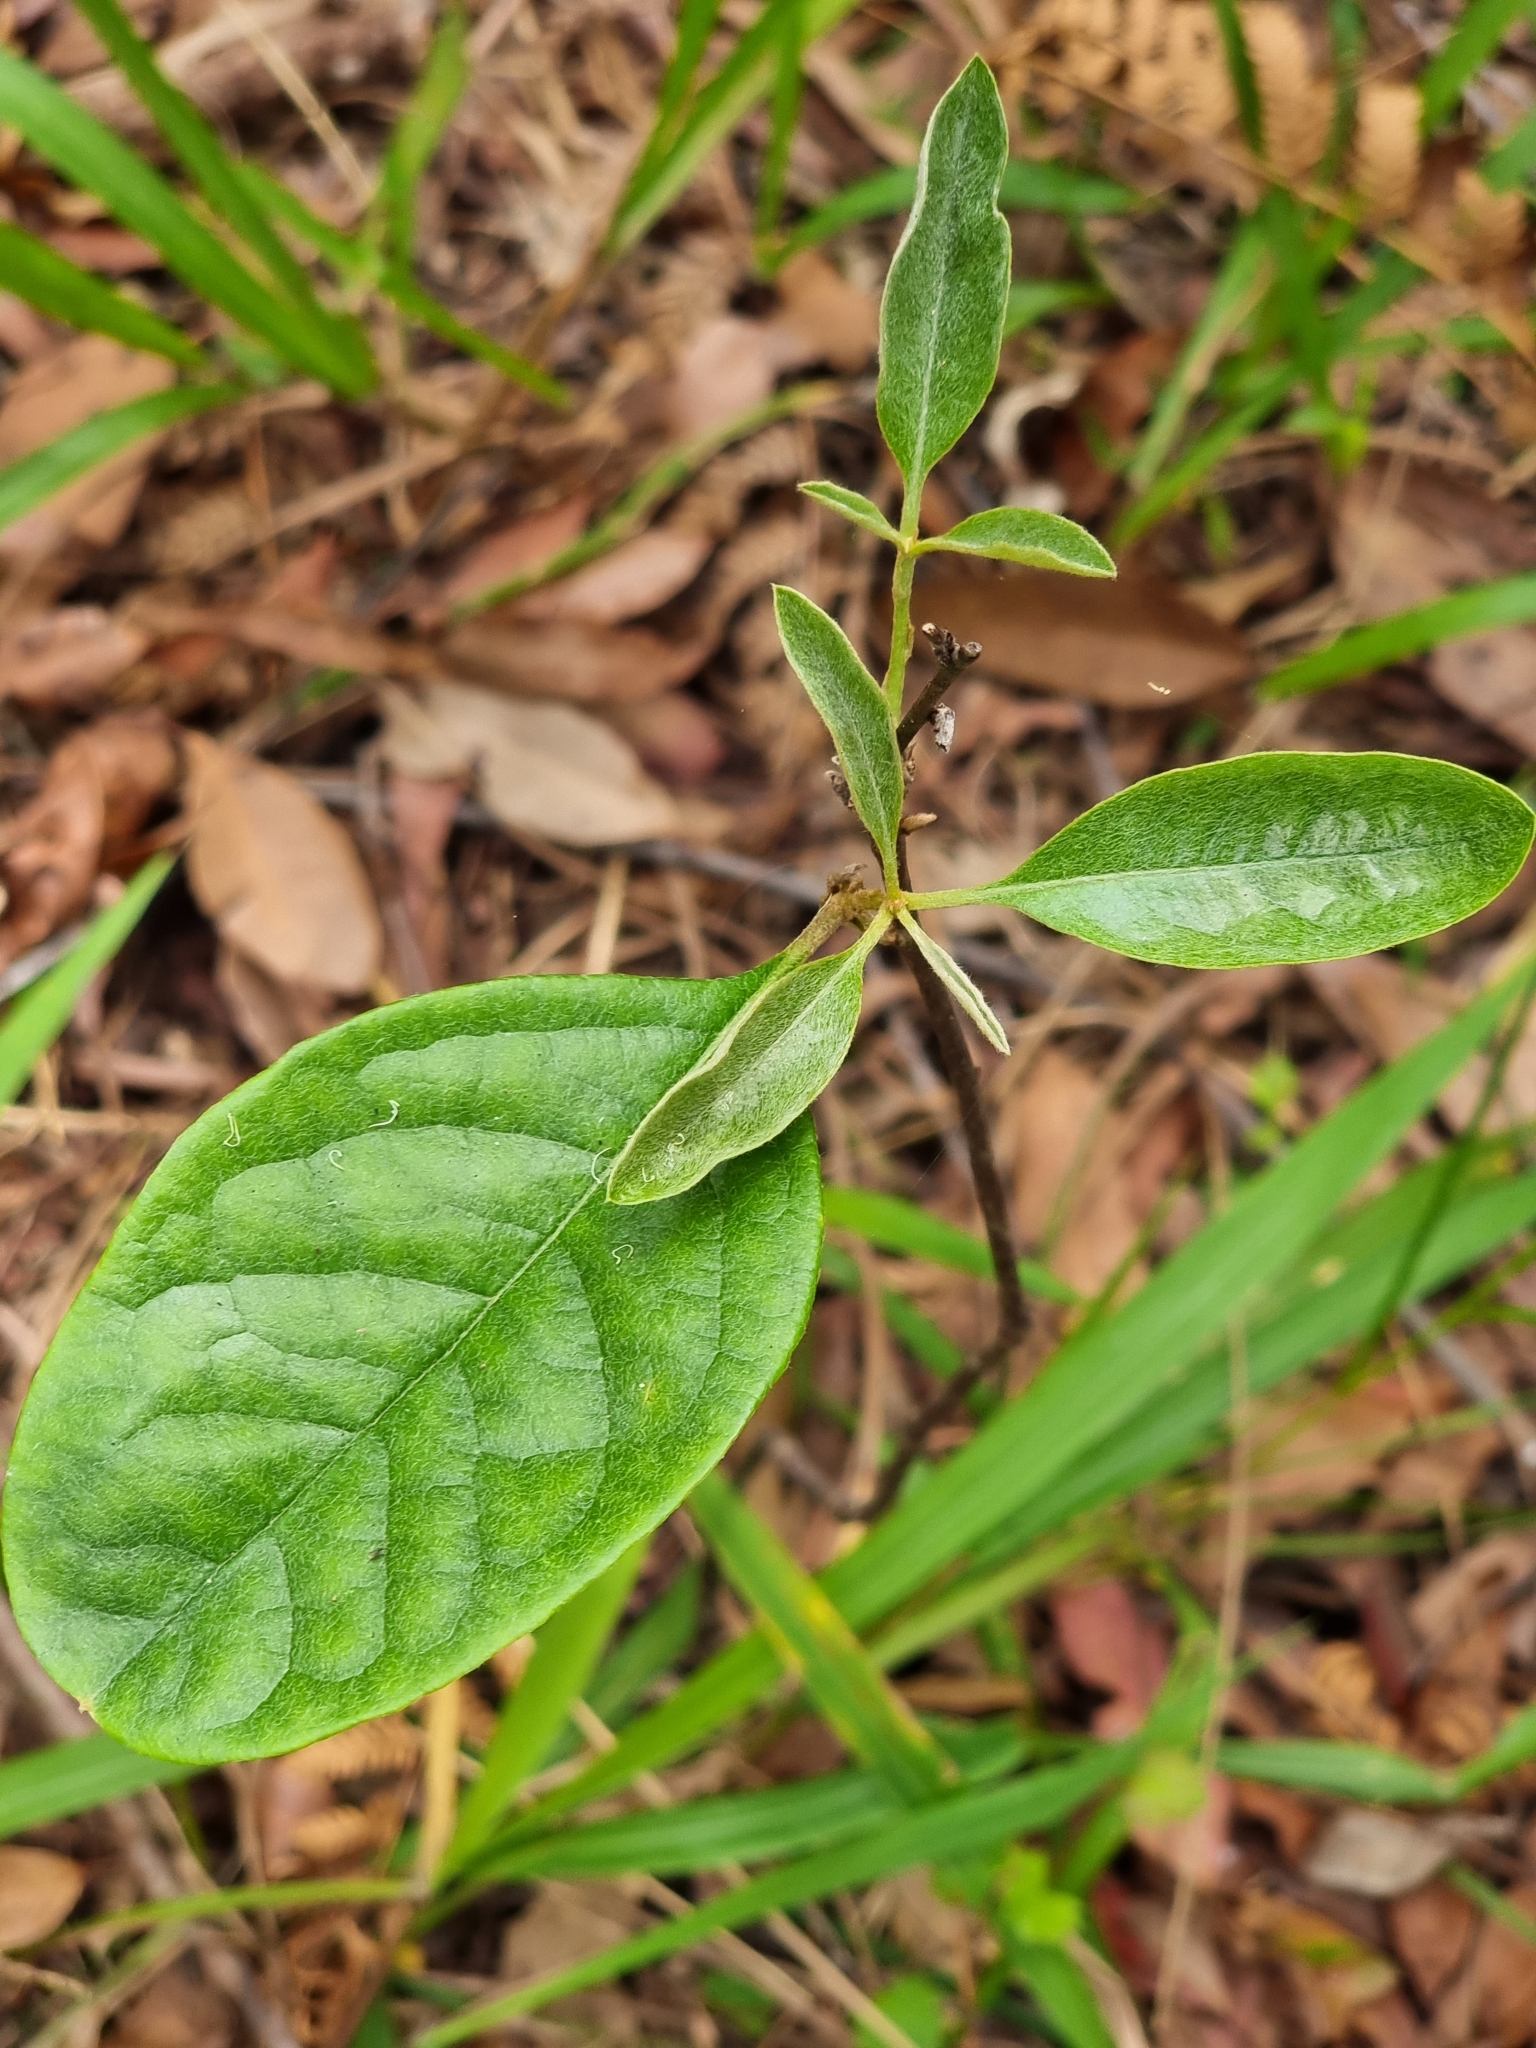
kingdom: Plantae
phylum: Tracheophyta
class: Magnoliopsida
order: Apiales
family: Pittosporaceae
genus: Pittosporum
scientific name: Pittosporum revolutum
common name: Brisbane-laurel
